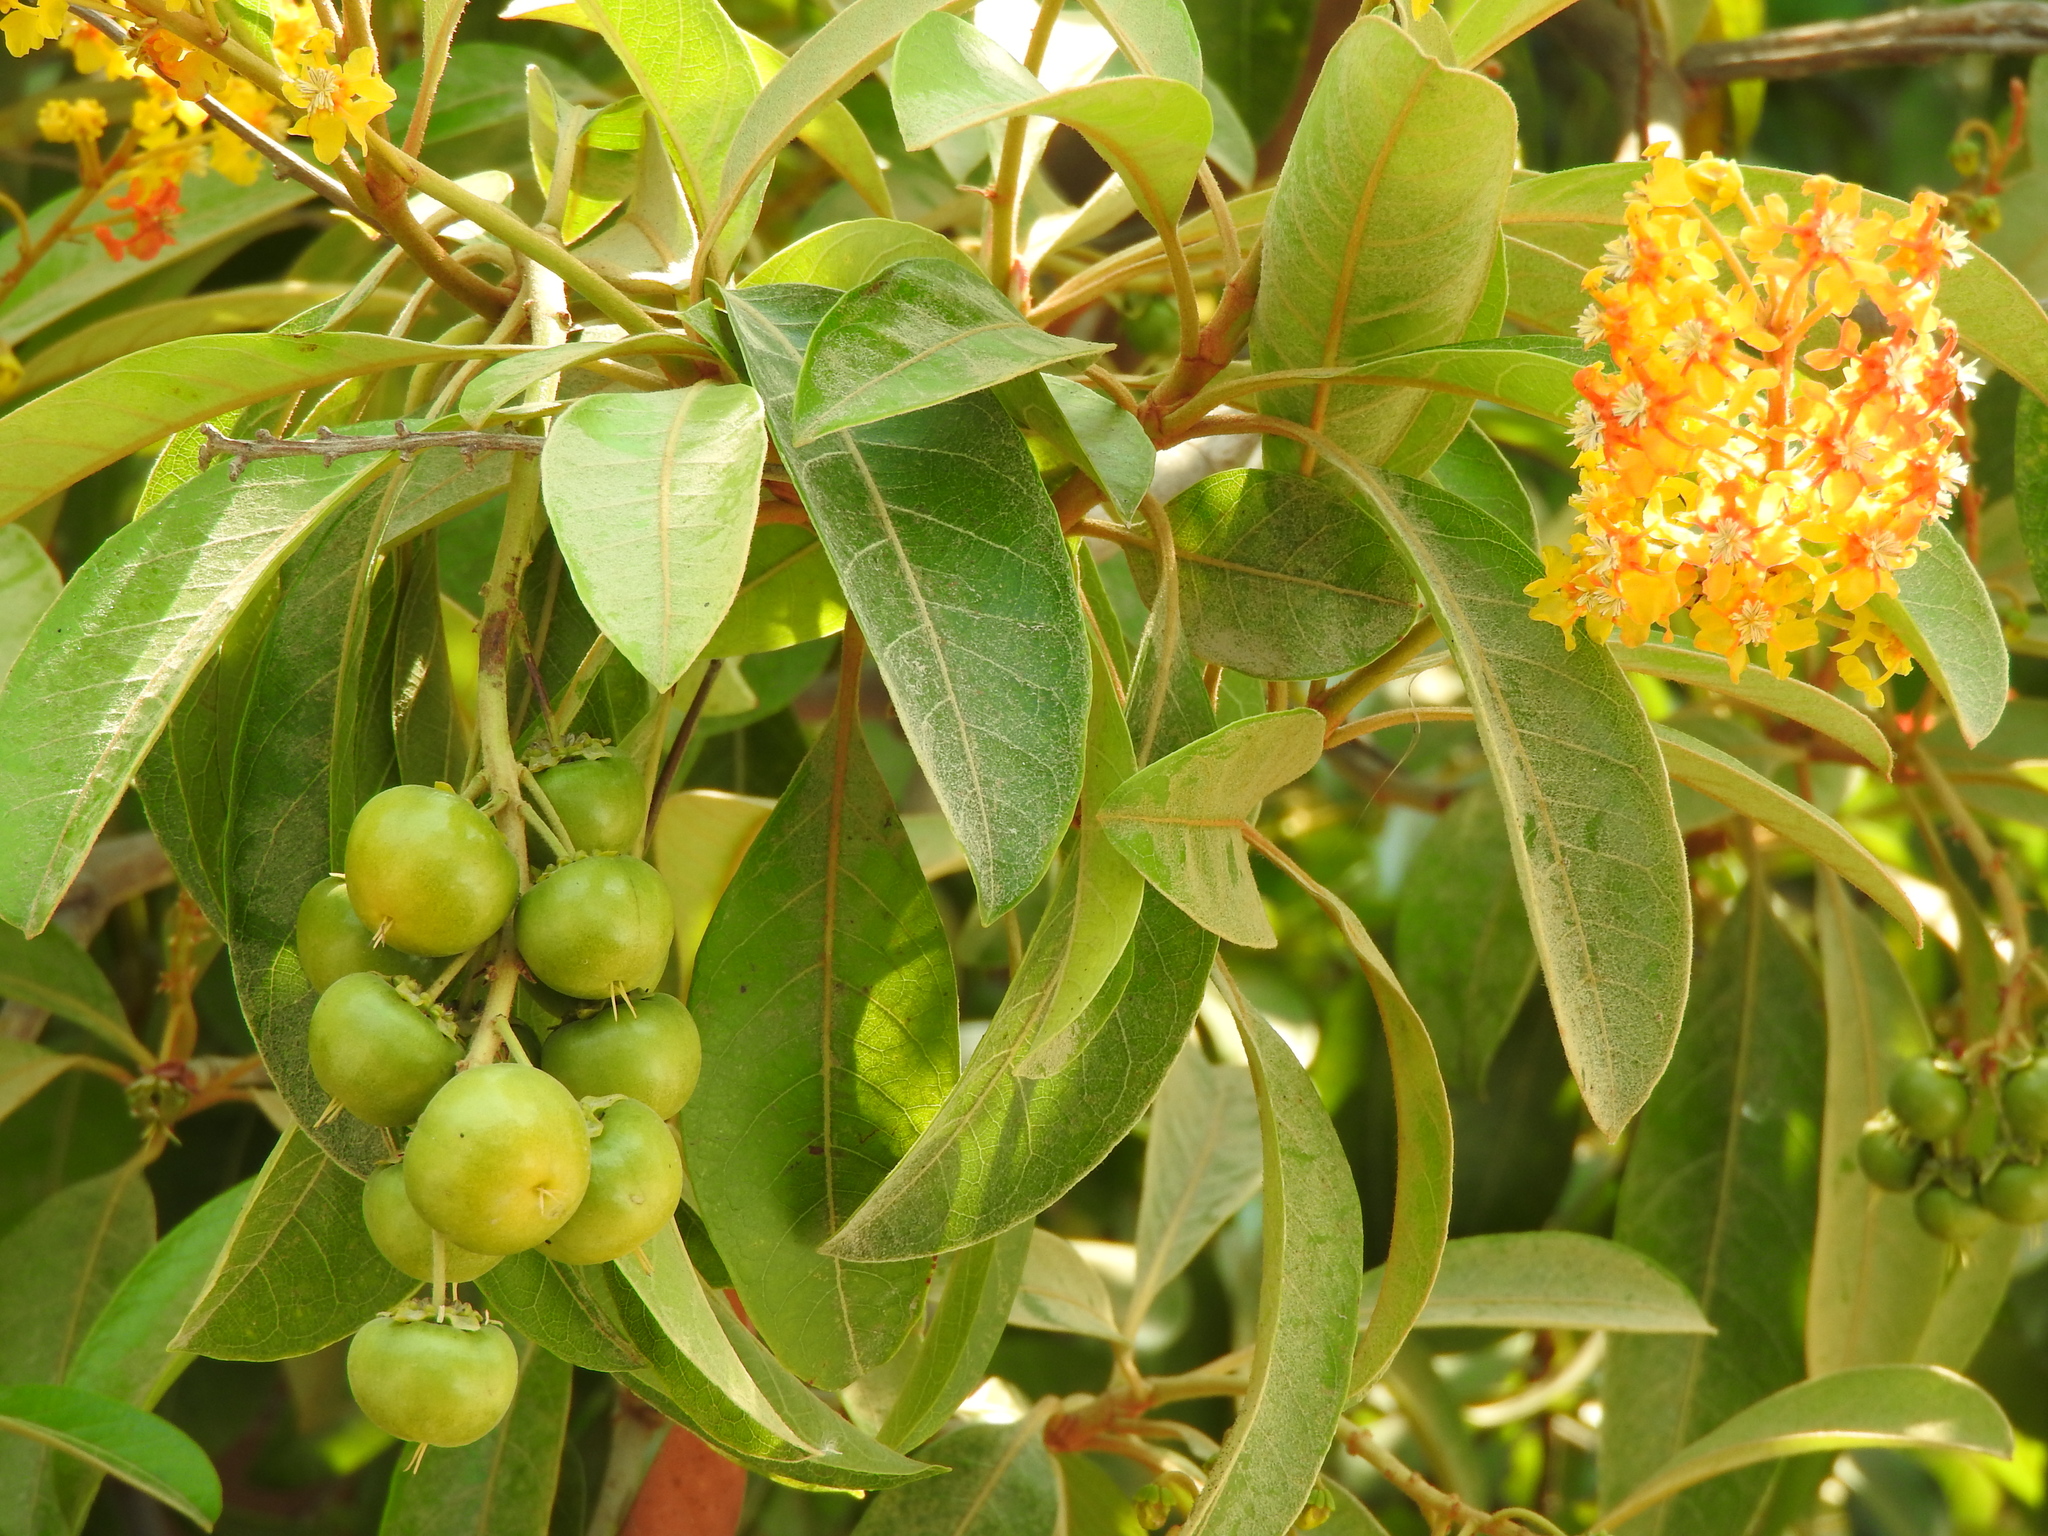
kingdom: Plantae
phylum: Tracheophyta
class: Magnoliopsida
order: Malpighiales
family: Malpighiaceae
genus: Byrsonima
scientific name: Byrsonima crassifolia
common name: Golden spoon
